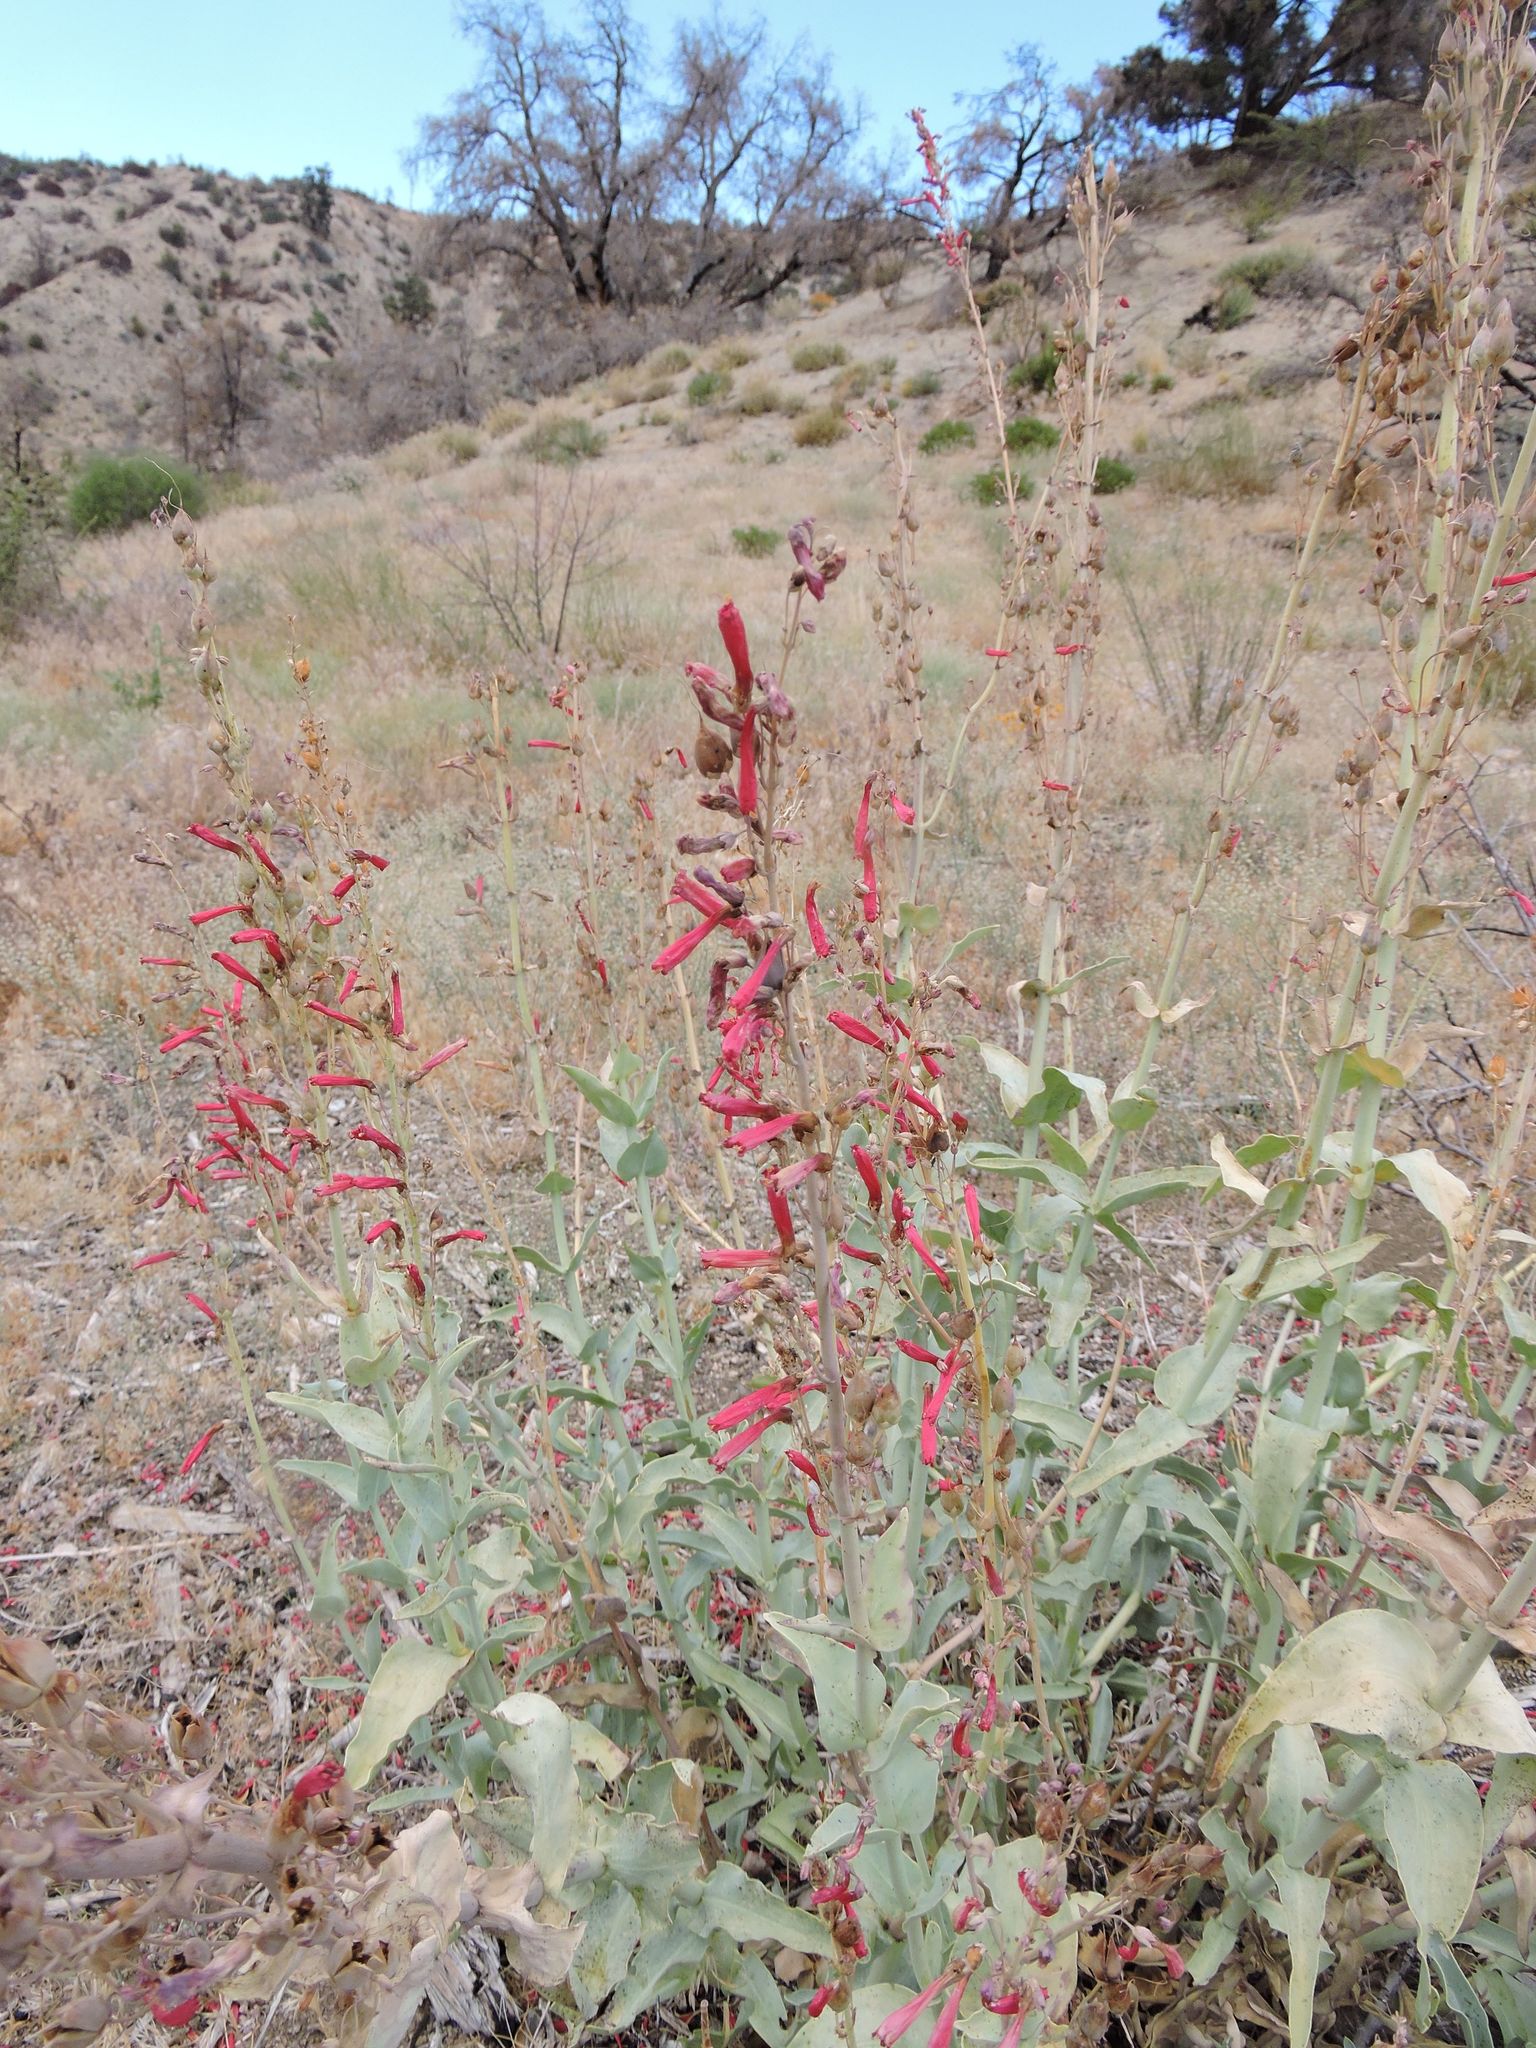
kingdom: Plantae
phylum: Tracheophyta
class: Magnoliopsida
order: Lamiales
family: Plantaginaceae
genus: Penstemon
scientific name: Penstemon centranthifolius
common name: Scarlet bugler
